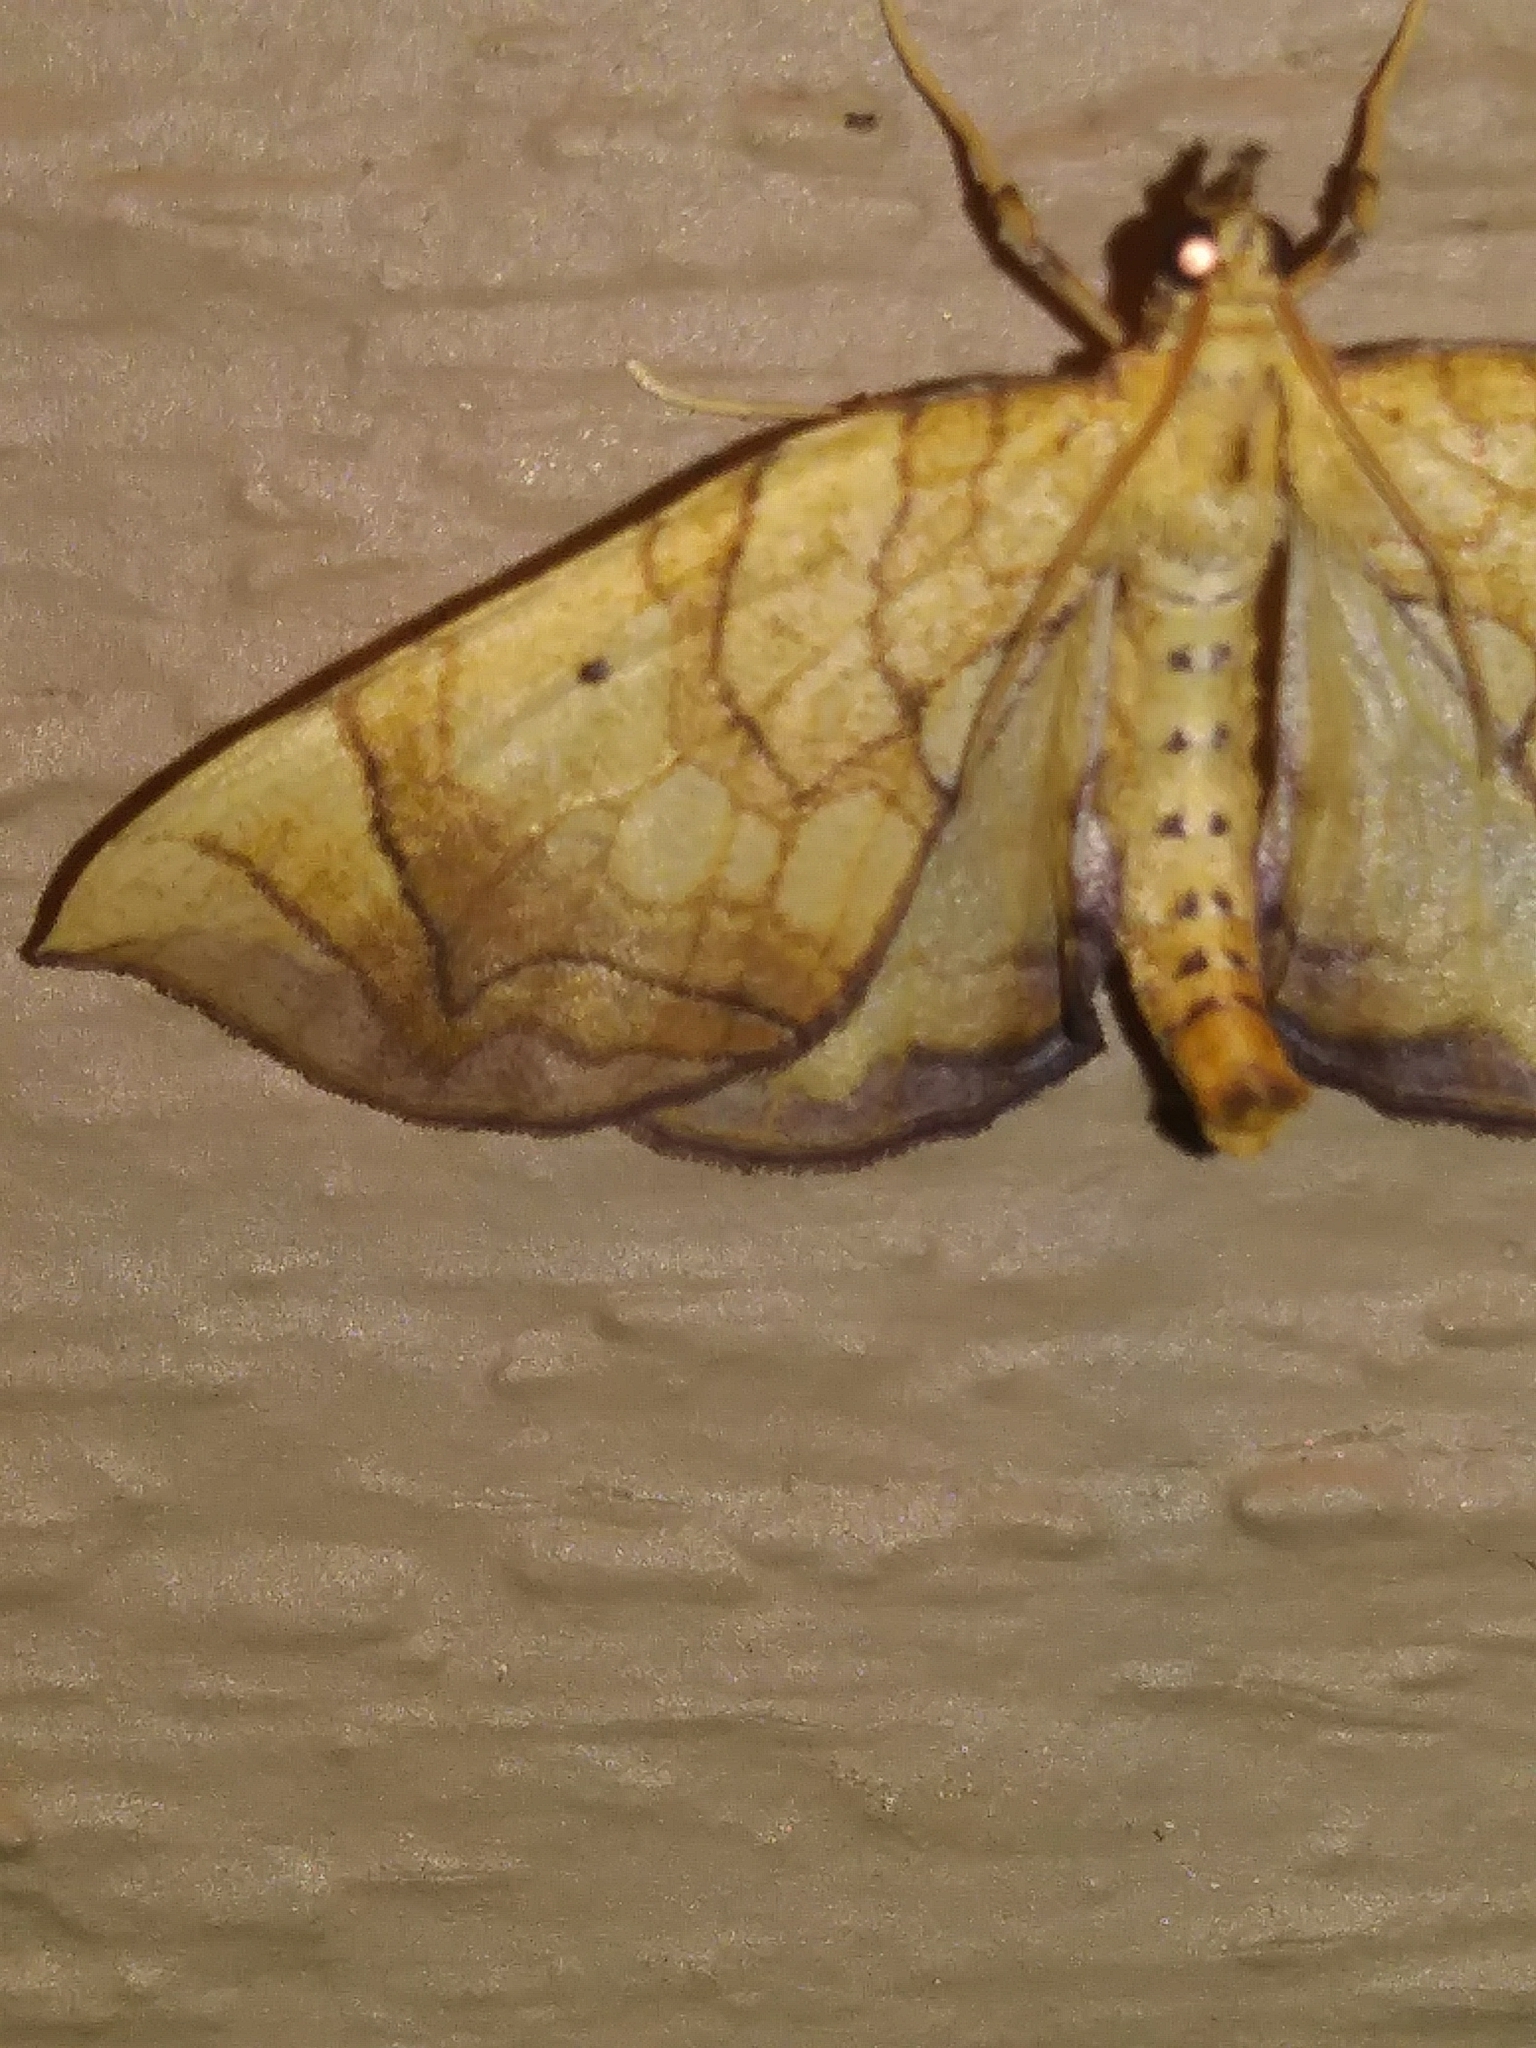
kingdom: Animalia
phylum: Arthropoda
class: Insecta
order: Lepidoptera
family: Geometridae
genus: Eulithis
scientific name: Eulithis gracilineata
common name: Greater grapevine looper moth
